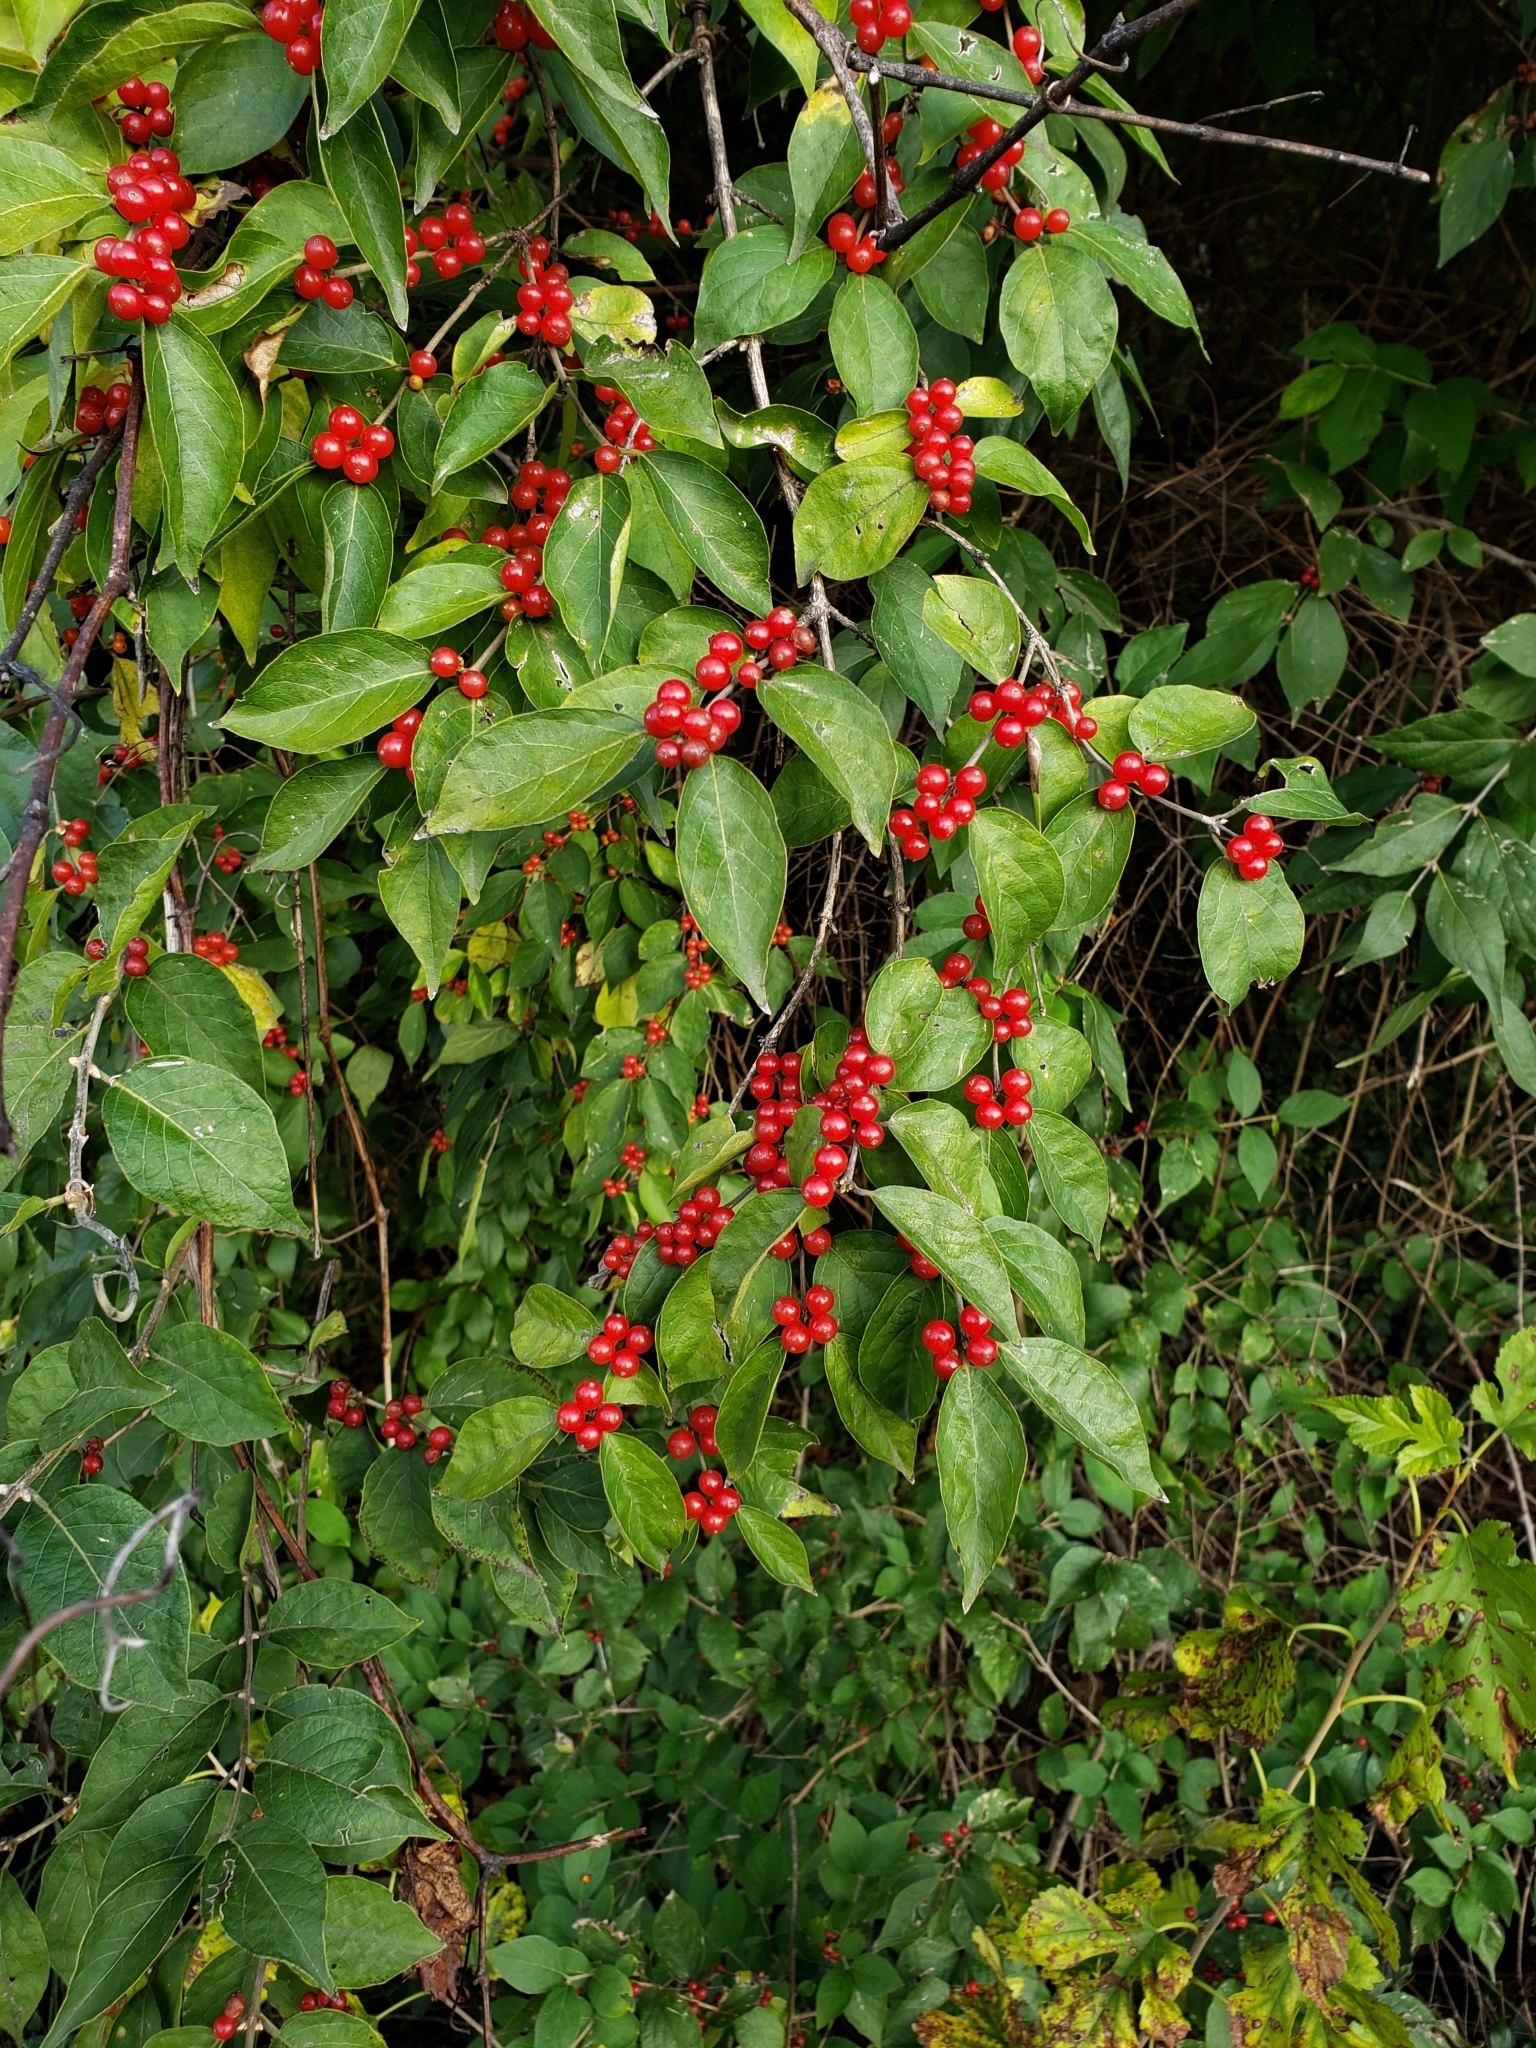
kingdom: Plantae
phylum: Tracheophyta
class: Magnoliopsida
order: Dipsacales
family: Caprifoliaceae
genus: Lonicera
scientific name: Lonicera maackii
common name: Amur honeysuckle
